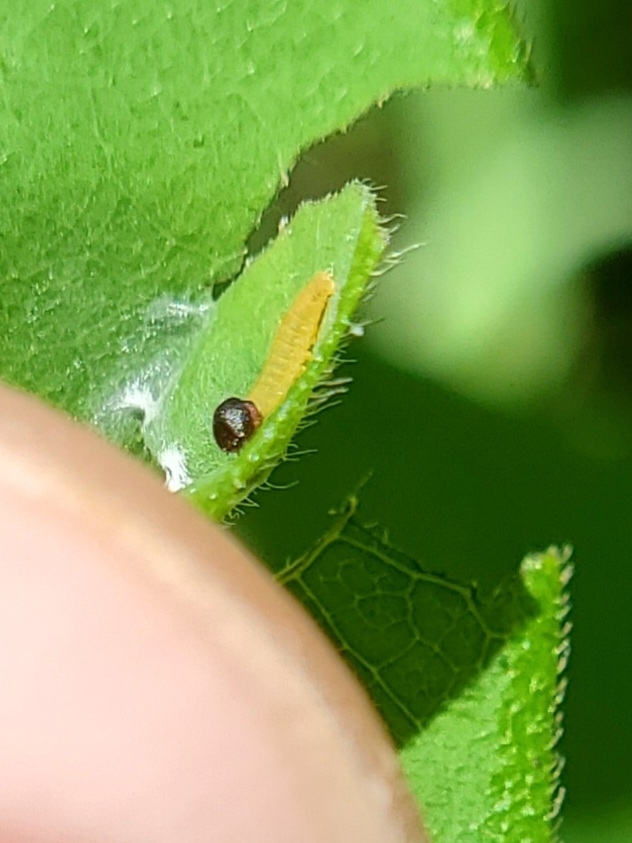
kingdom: Animalia
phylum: Arthropoda
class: Insecta
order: Lepidoptera
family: Hesperiidae
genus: Epargyreus
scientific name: Epargyreus clarus
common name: Silver-spotted skipper
